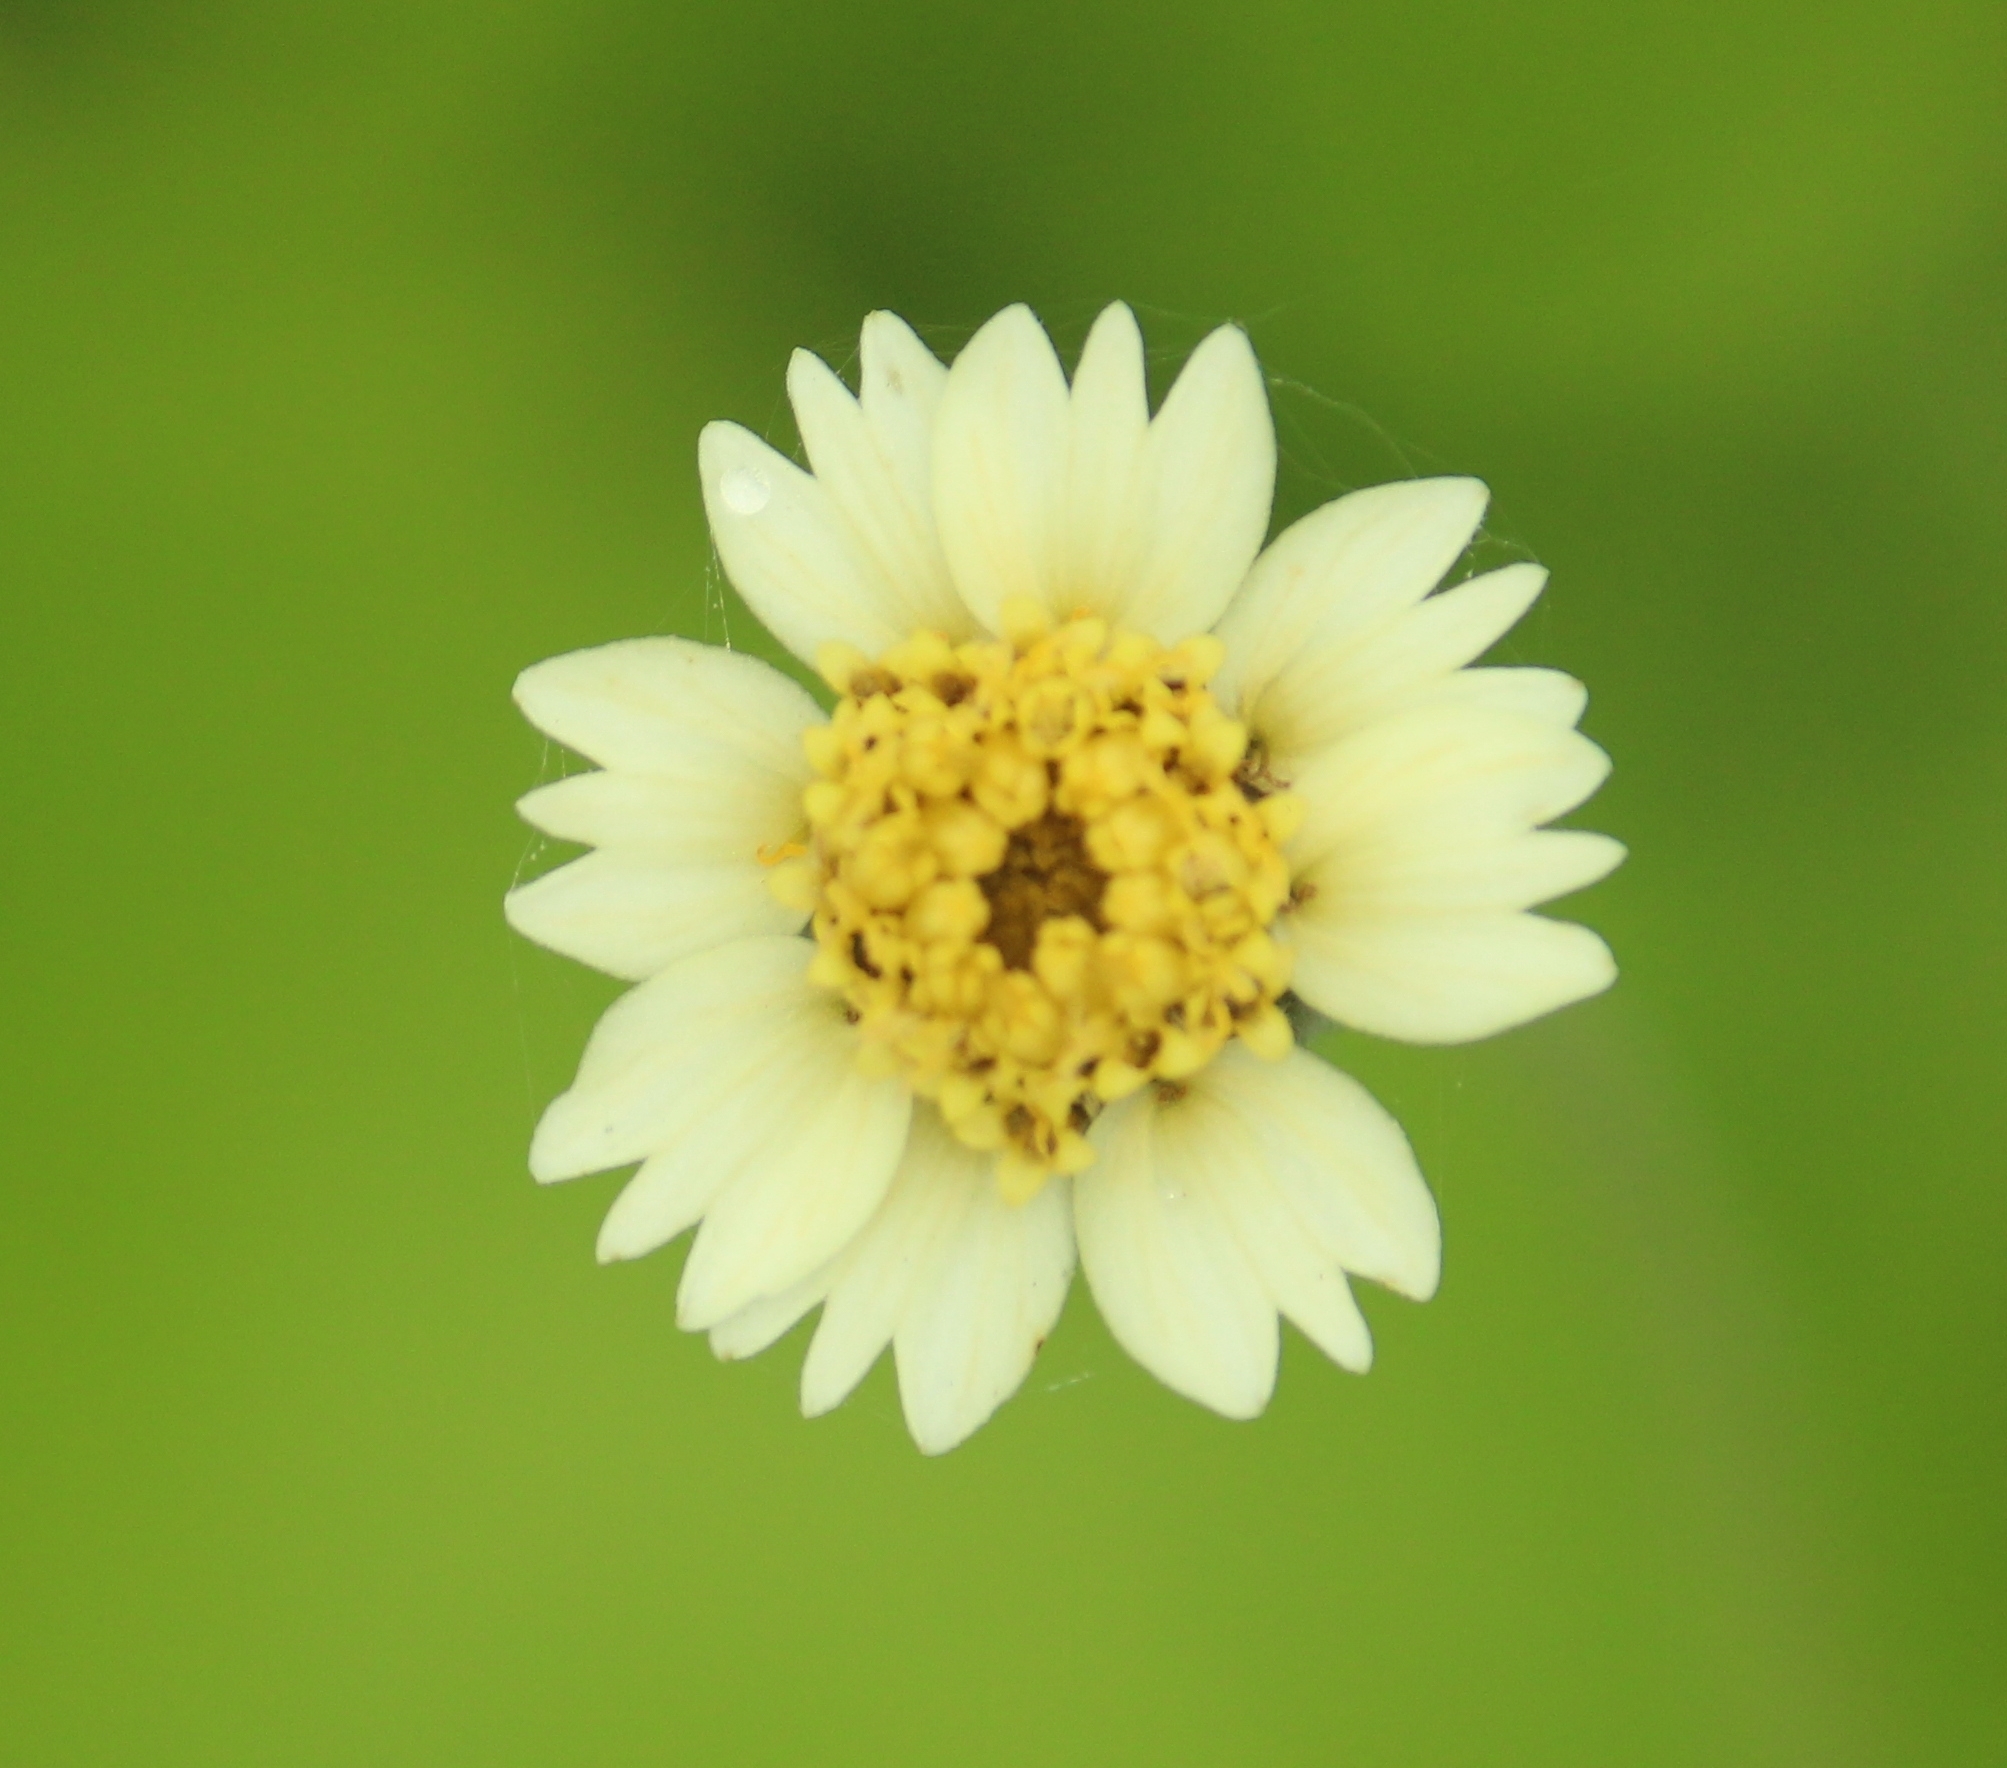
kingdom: Plantae
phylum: Tracheophyta
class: Magnoliopsida
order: Asterales
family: Asteraceae
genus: Tridax
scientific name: Tridax procumbens
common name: Coatbuttons
